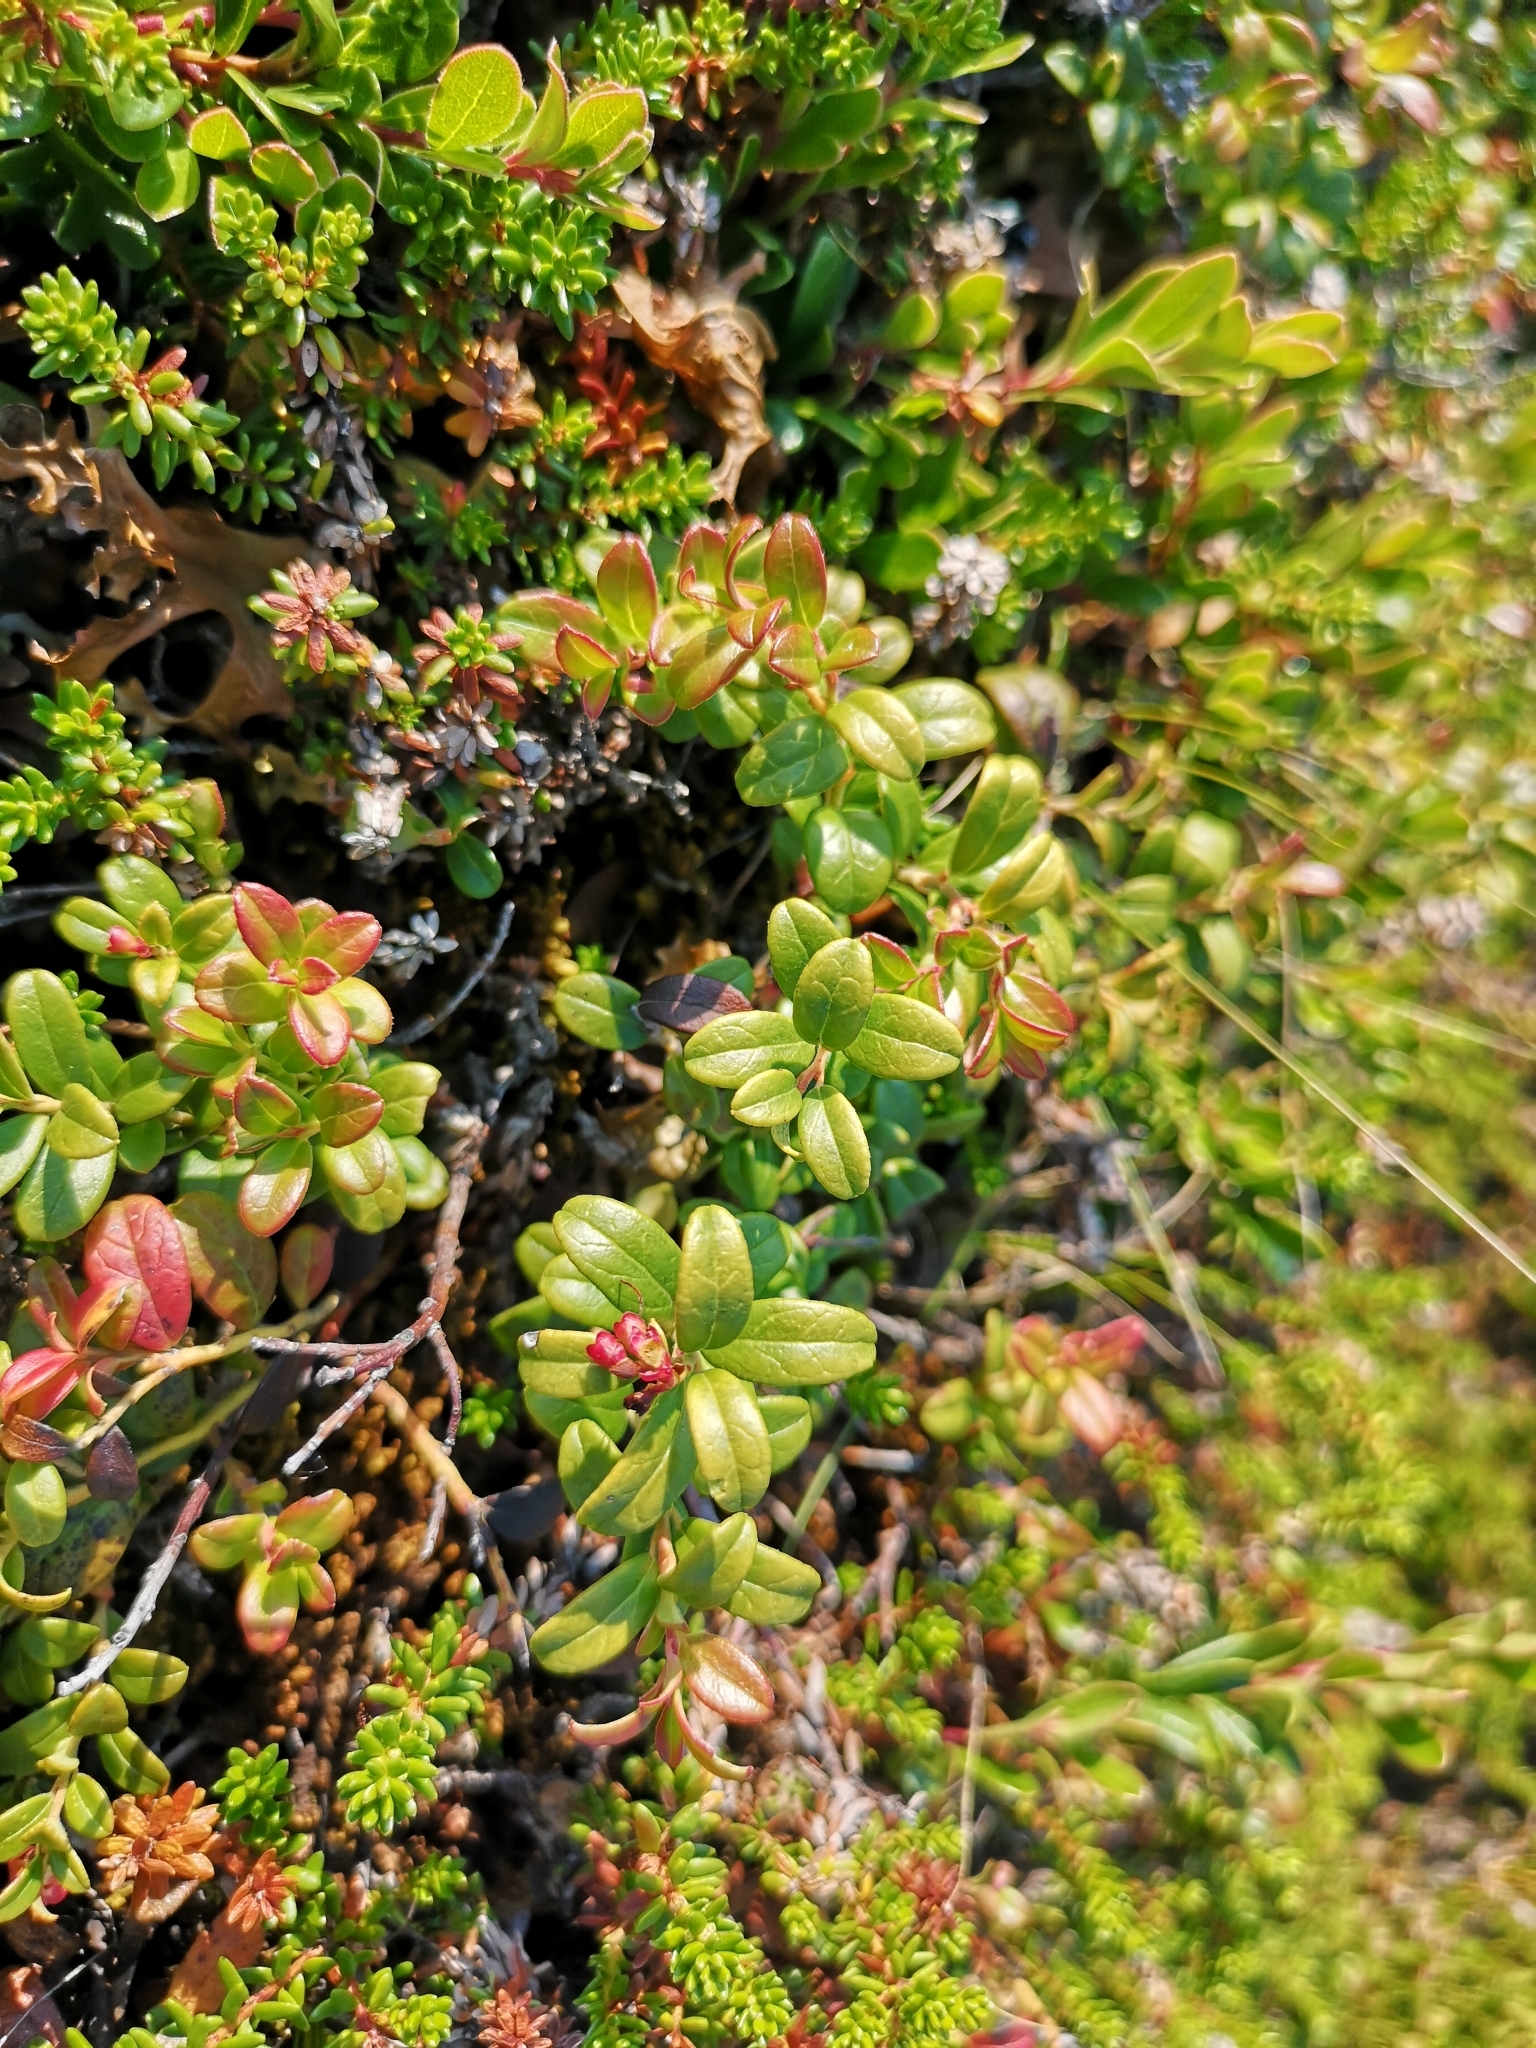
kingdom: Plantae
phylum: Tracheophyta
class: Magnoliopsida
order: Ericales
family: Ericaceae
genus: Vaccinium
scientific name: Vaccinium vitis-idaea
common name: Cowberry
